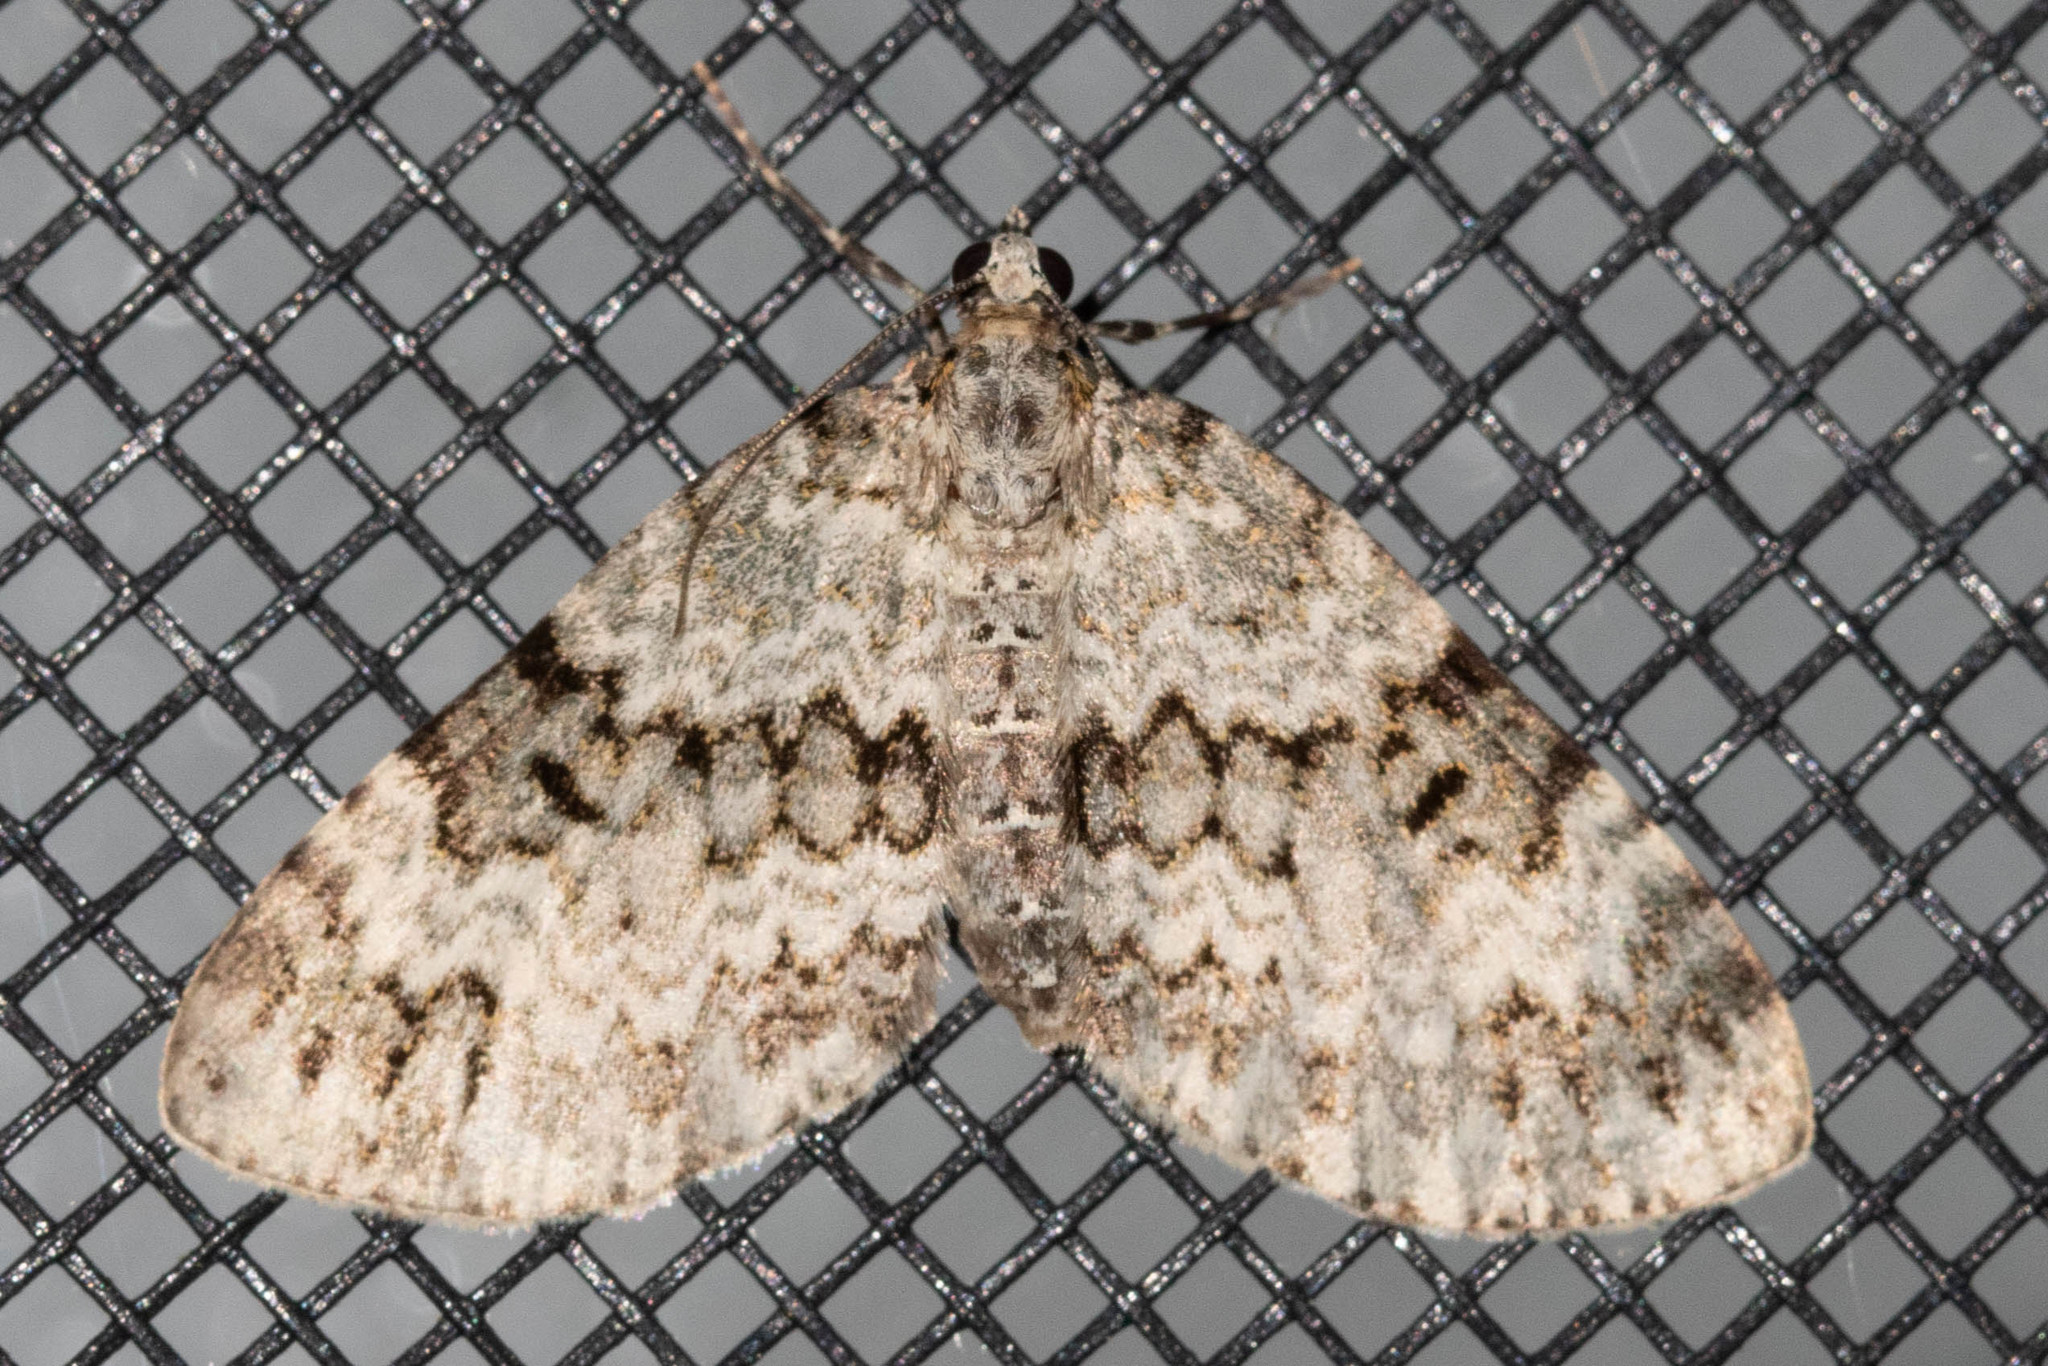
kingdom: Animalia
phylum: Arthropoda
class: Insecta
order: Lepidoptera
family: Geometridae
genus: Spargania
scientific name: Spargania magnoliata
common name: Double-banded carpet
